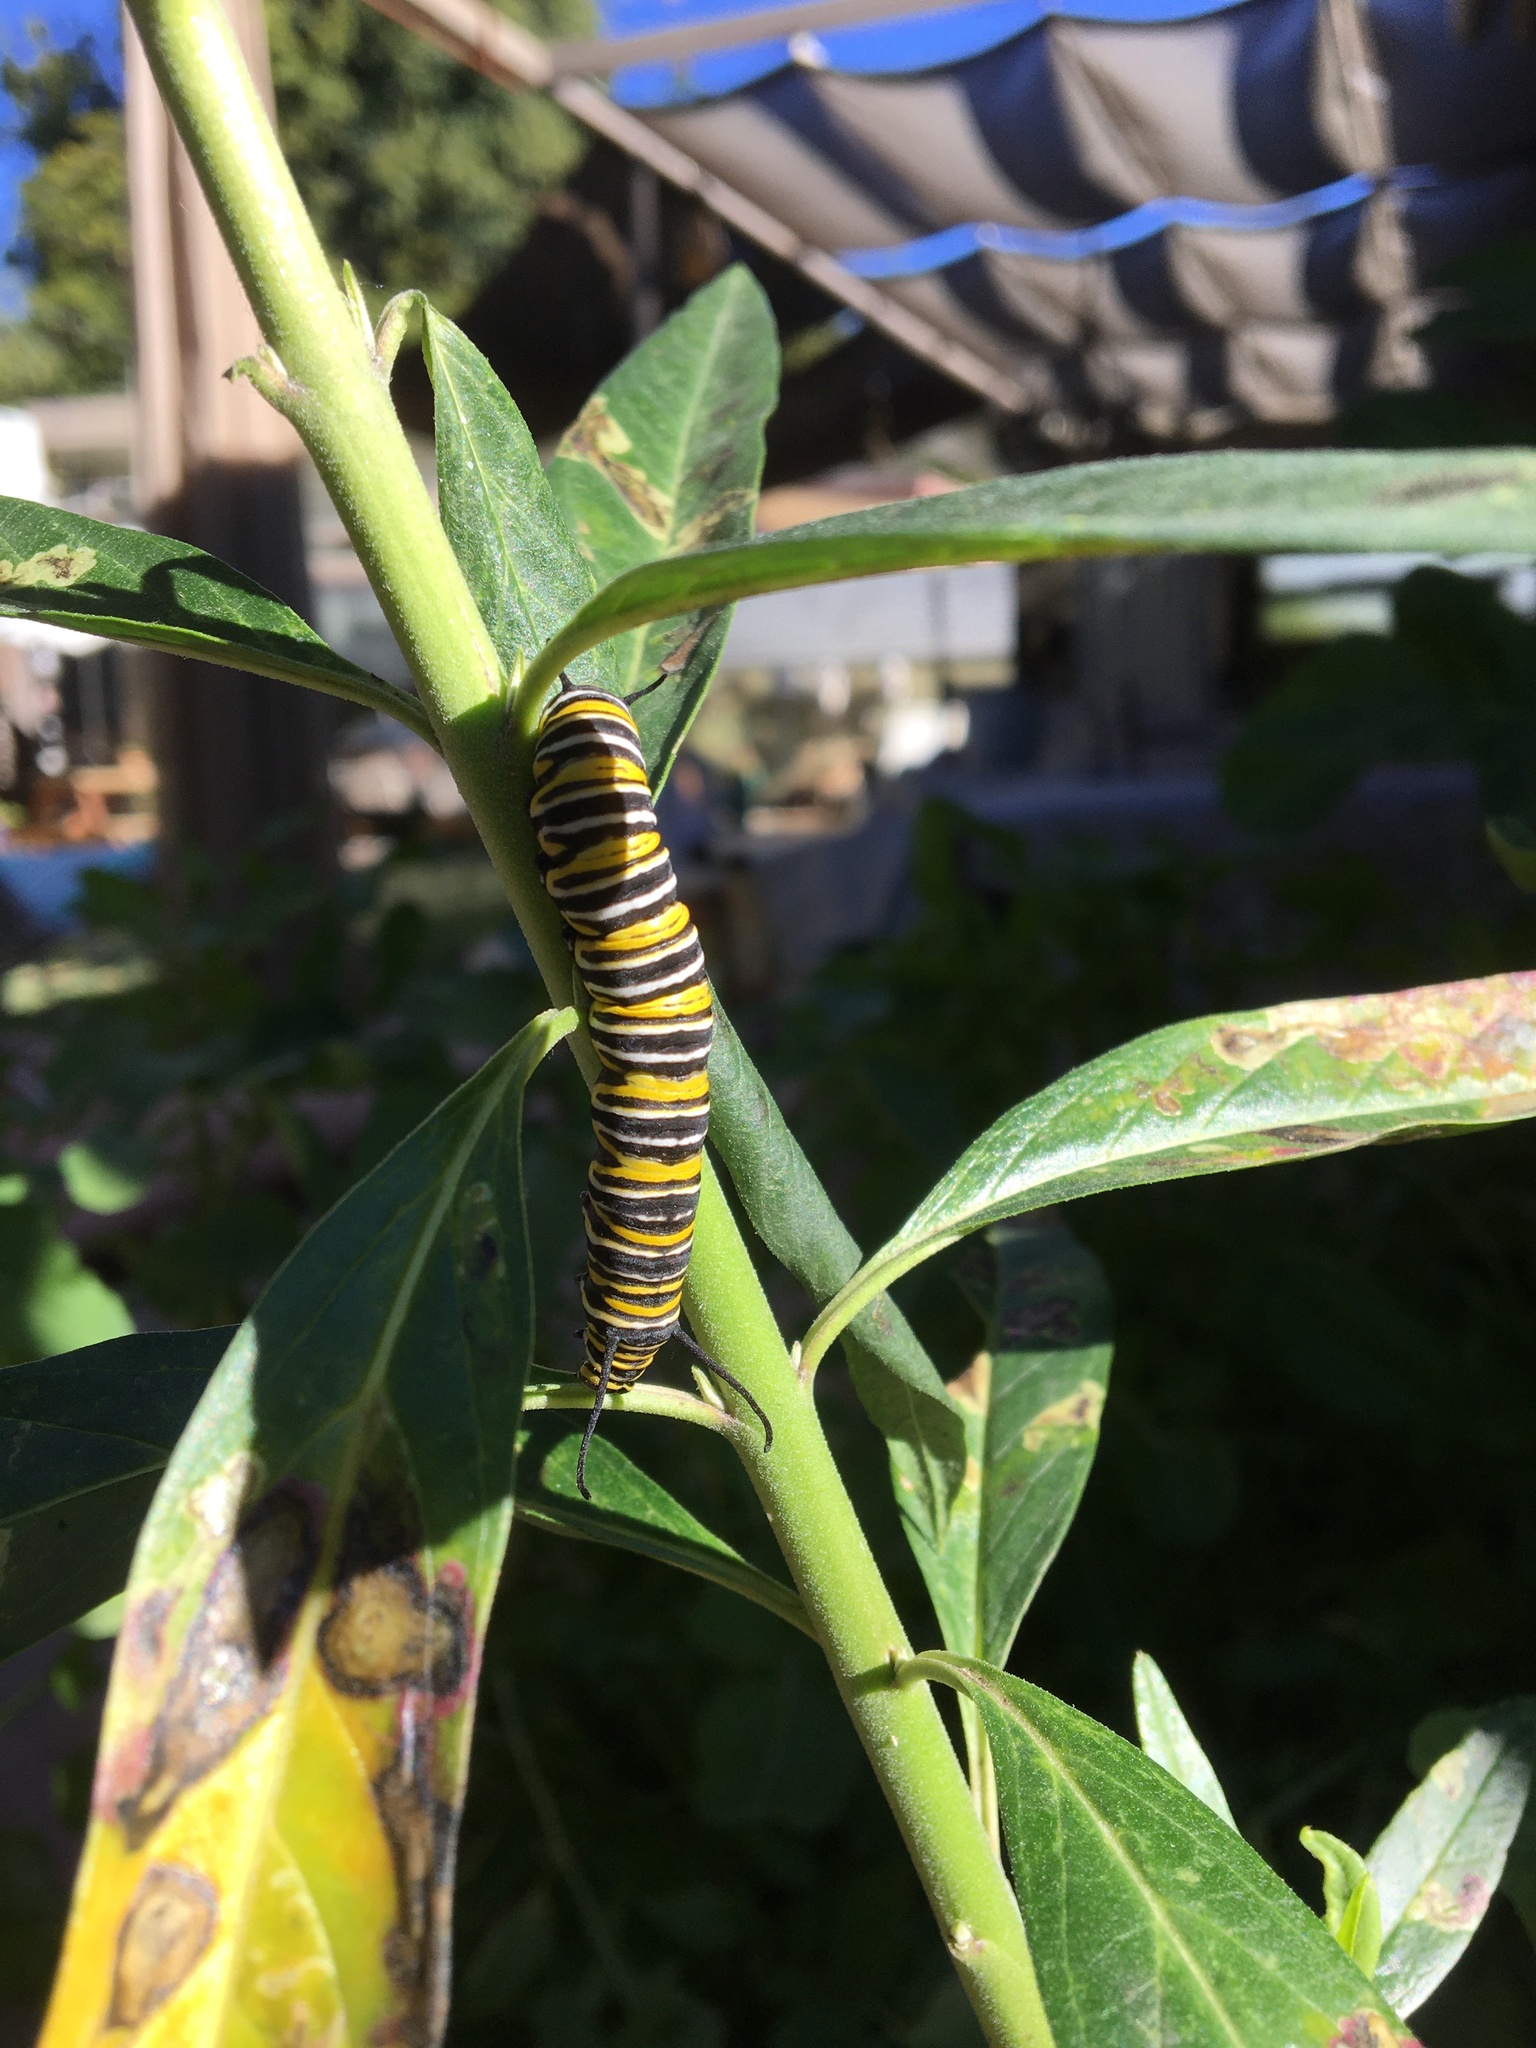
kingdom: Animalia
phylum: Arthropoda
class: Insecta
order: Lepidoptera
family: Nymphalidae
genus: Danaus
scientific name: Danaus plexippus
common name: Monarch
